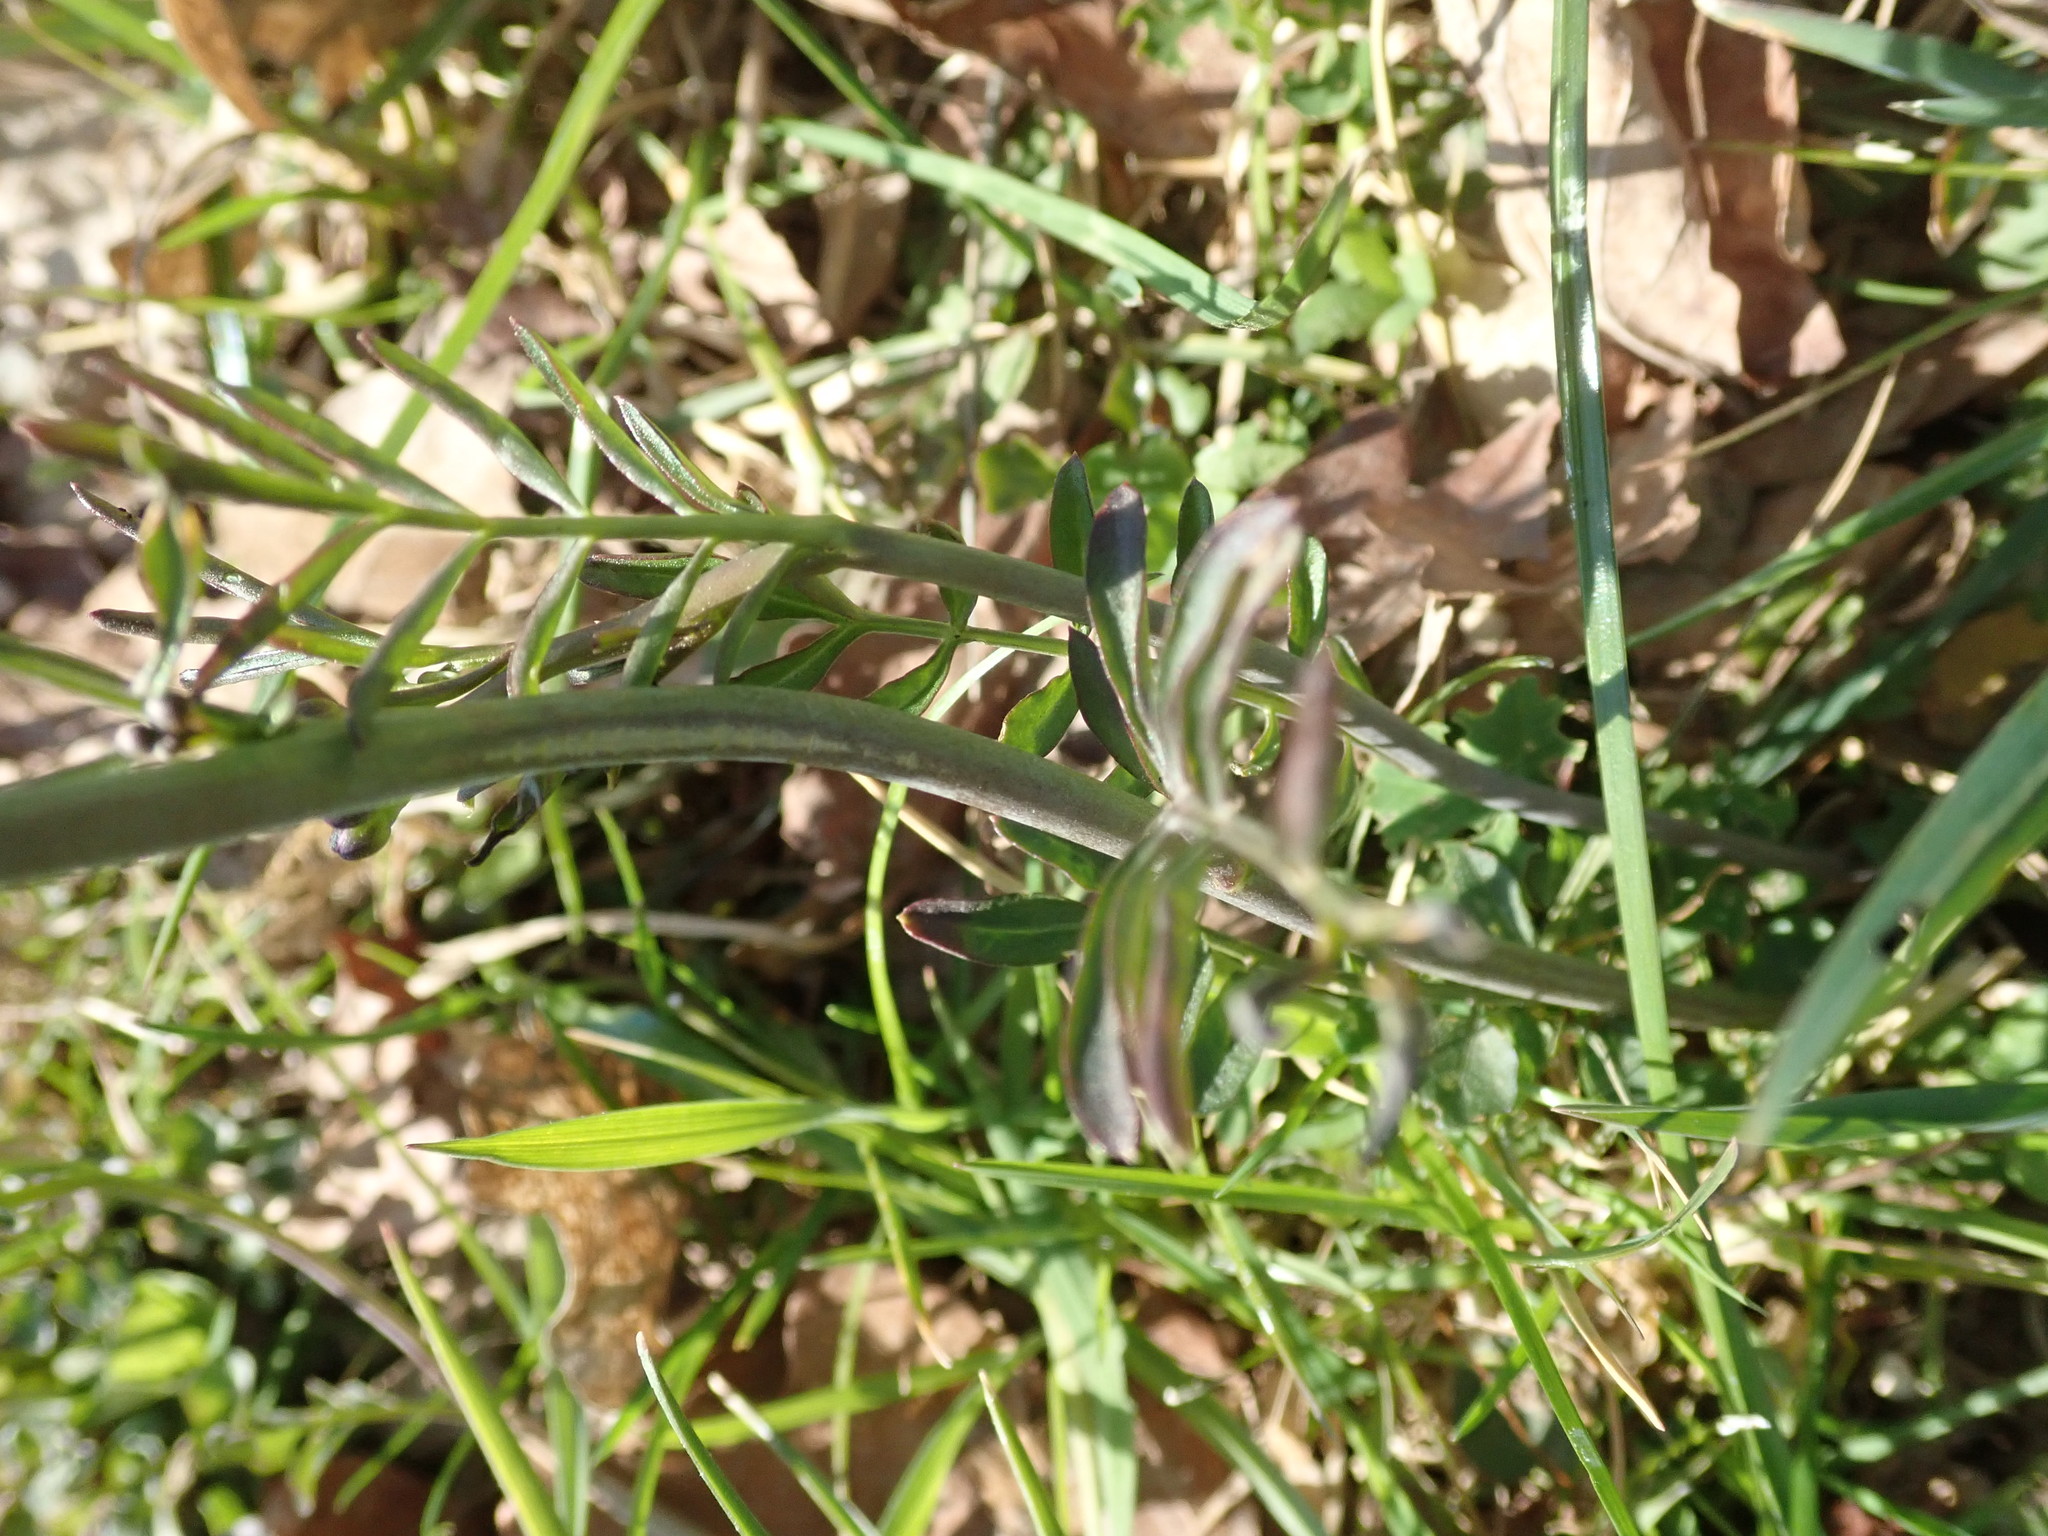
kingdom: Plantae
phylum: Tracheophyta
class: Magnoliopsida
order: Brassicales
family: Brassicaceae
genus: Cardamine
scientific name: Cardamine pratensis
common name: Cuckoo flower
